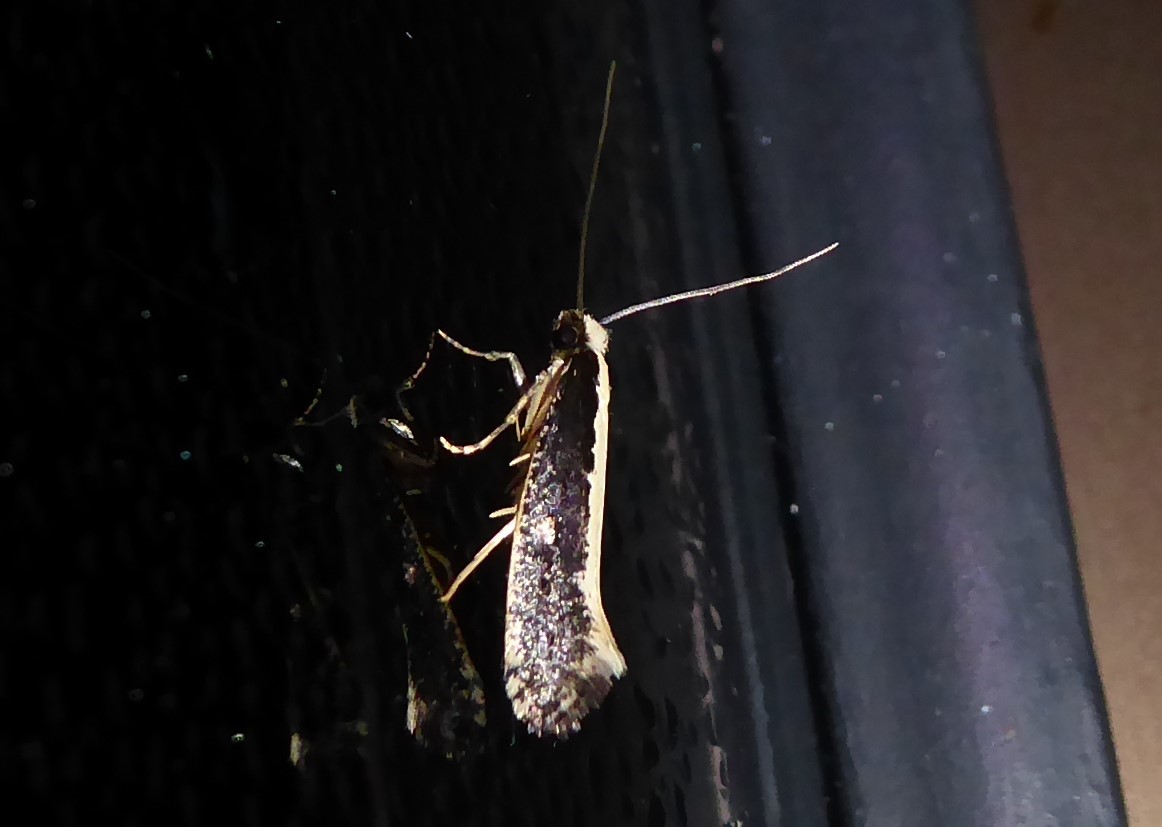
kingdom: Animalia
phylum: Arthropoda
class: Insecta
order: Lepidoptera
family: Tineidae
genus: Monopis
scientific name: Monopis ethelella
